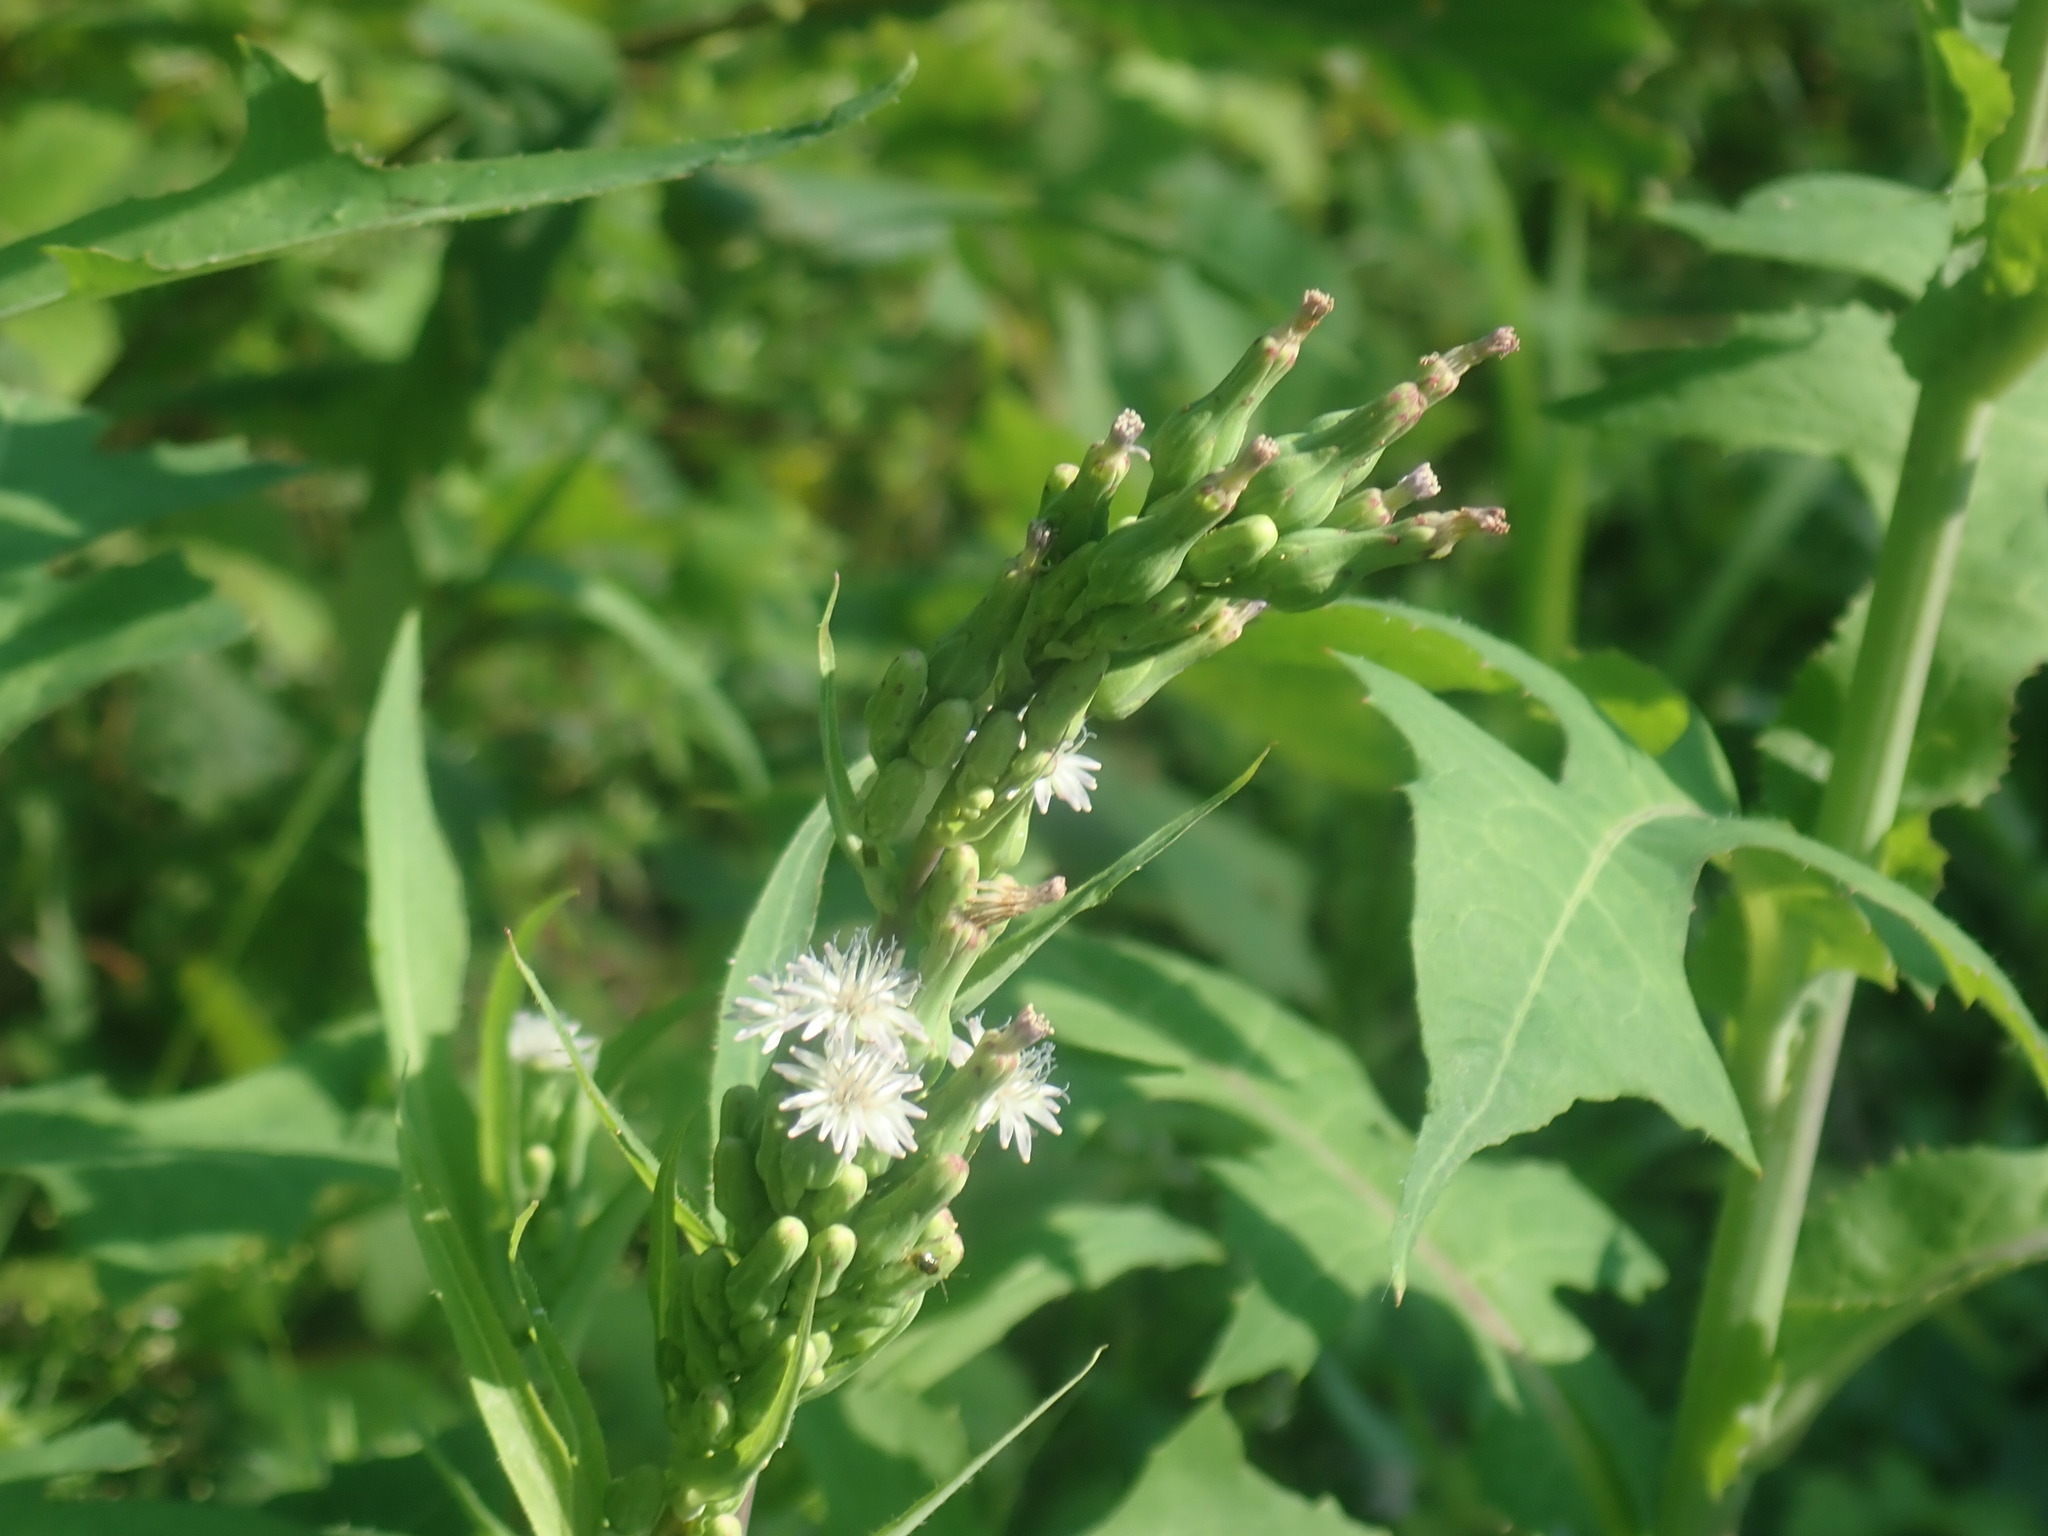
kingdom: Plantae
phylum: Tracheophyta
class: Magnoliopsida
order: Asterales
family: Asteraceae
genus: Lactuca
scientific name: Lactuca biennis
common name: Blue wood lettuce
